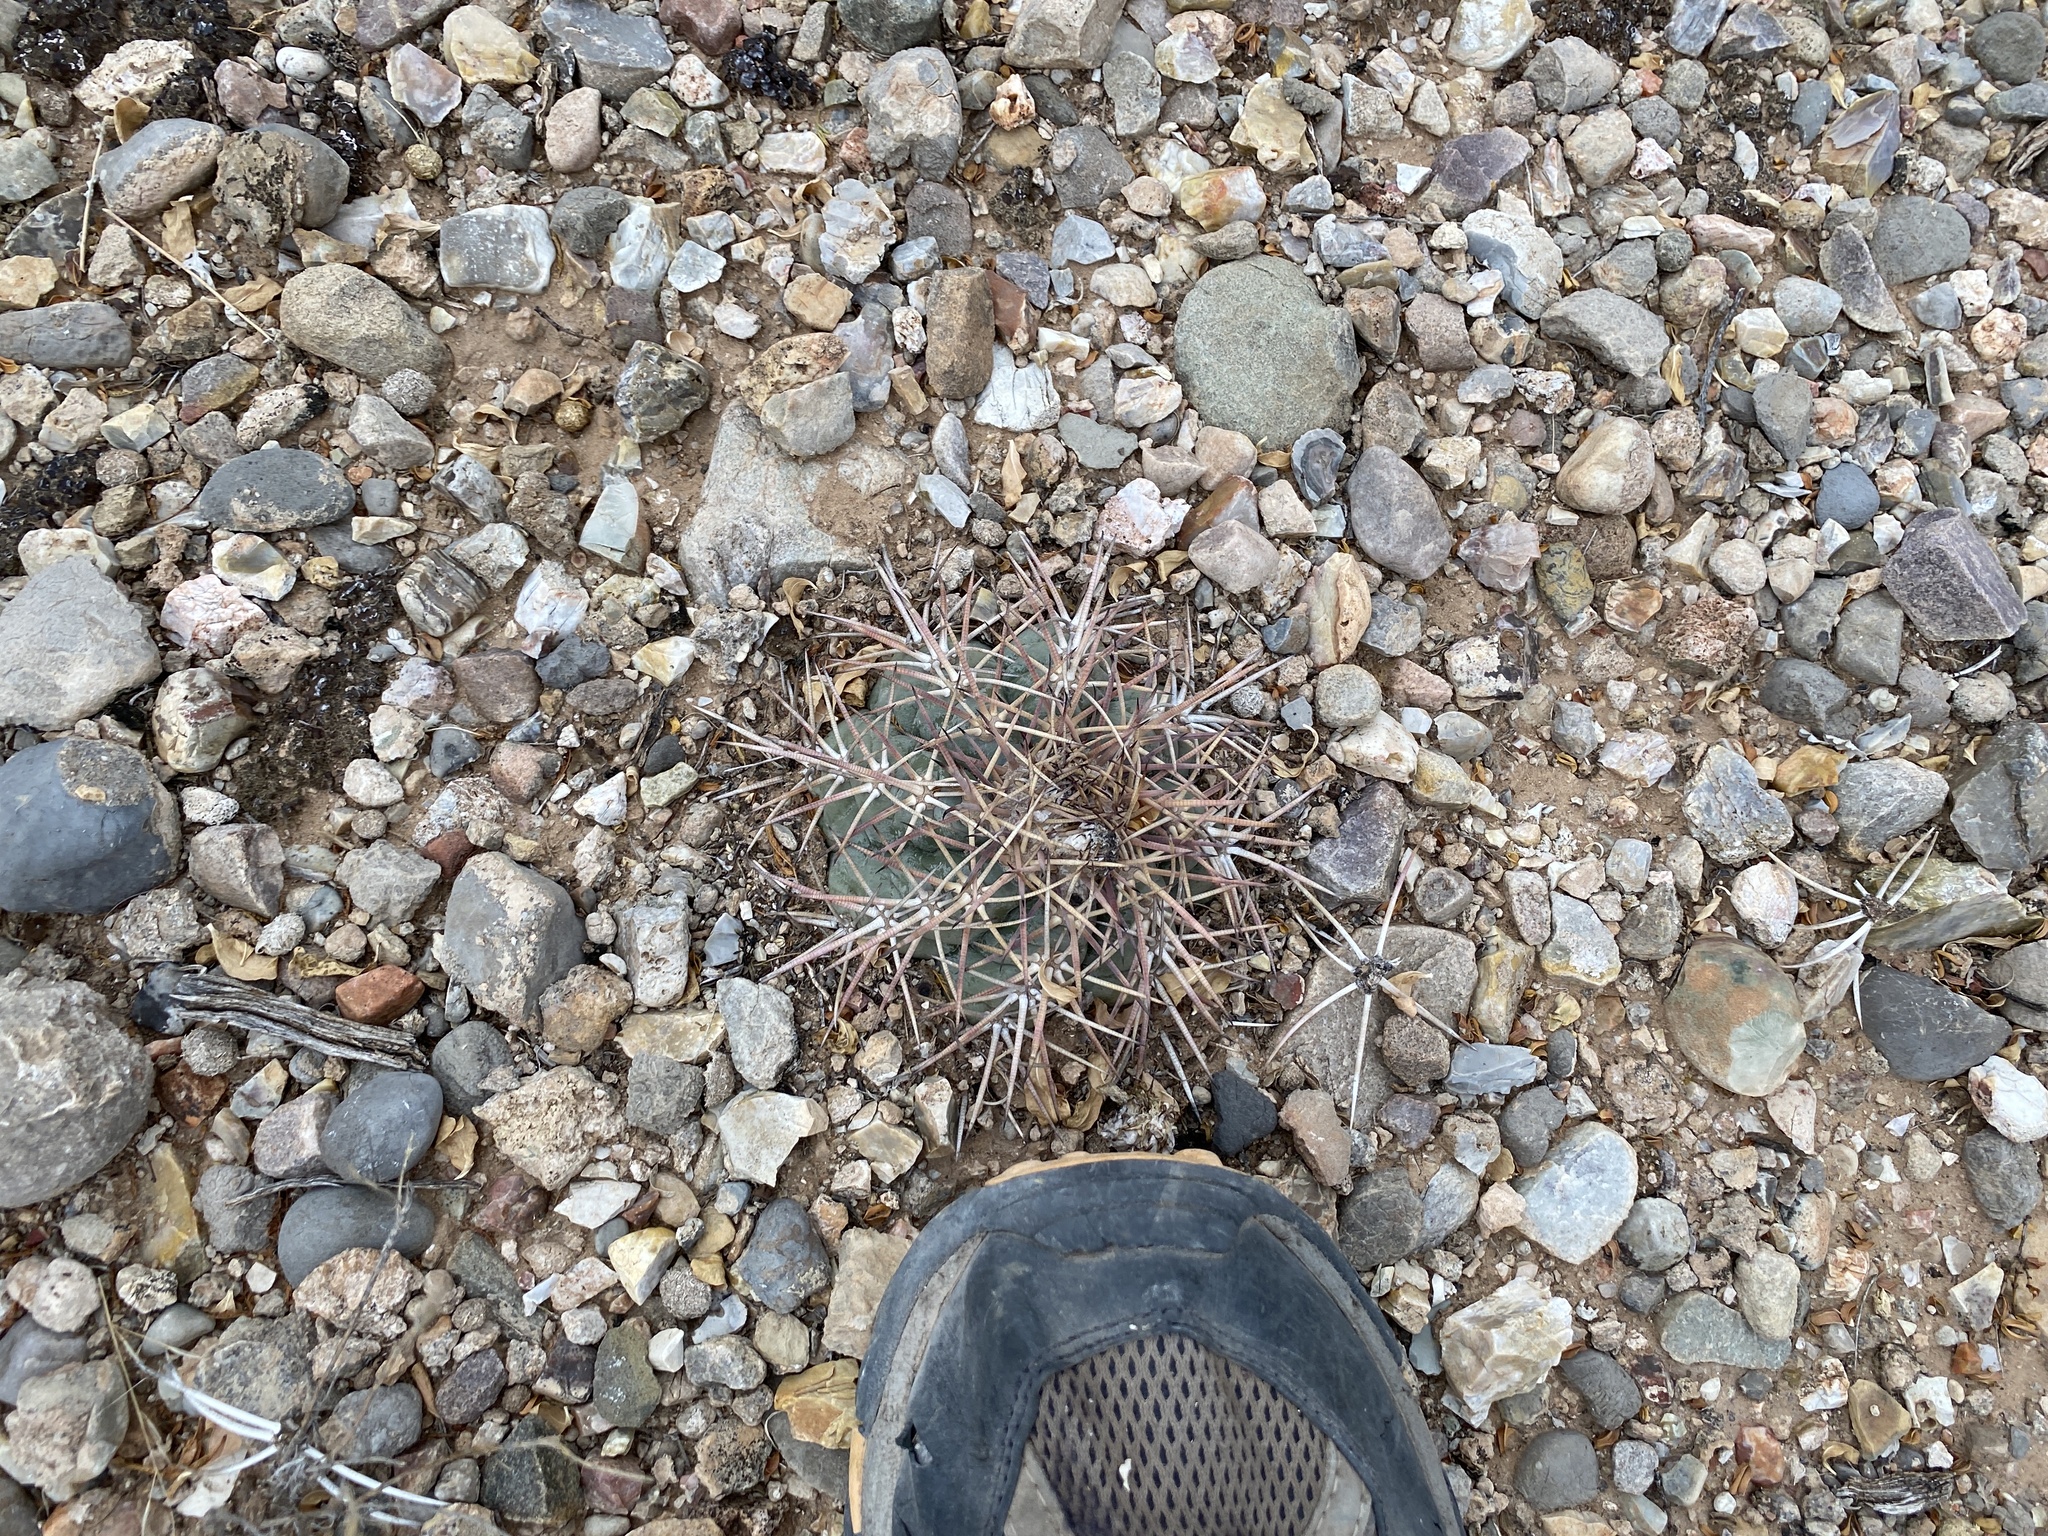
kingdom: Plantae
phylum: Tracheophyta
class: Magnoliopsida
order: Caryophyllales
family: Cactaceae
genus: Echinocactus
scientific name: Echinocactus horizonthalonius
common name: Devilshead
